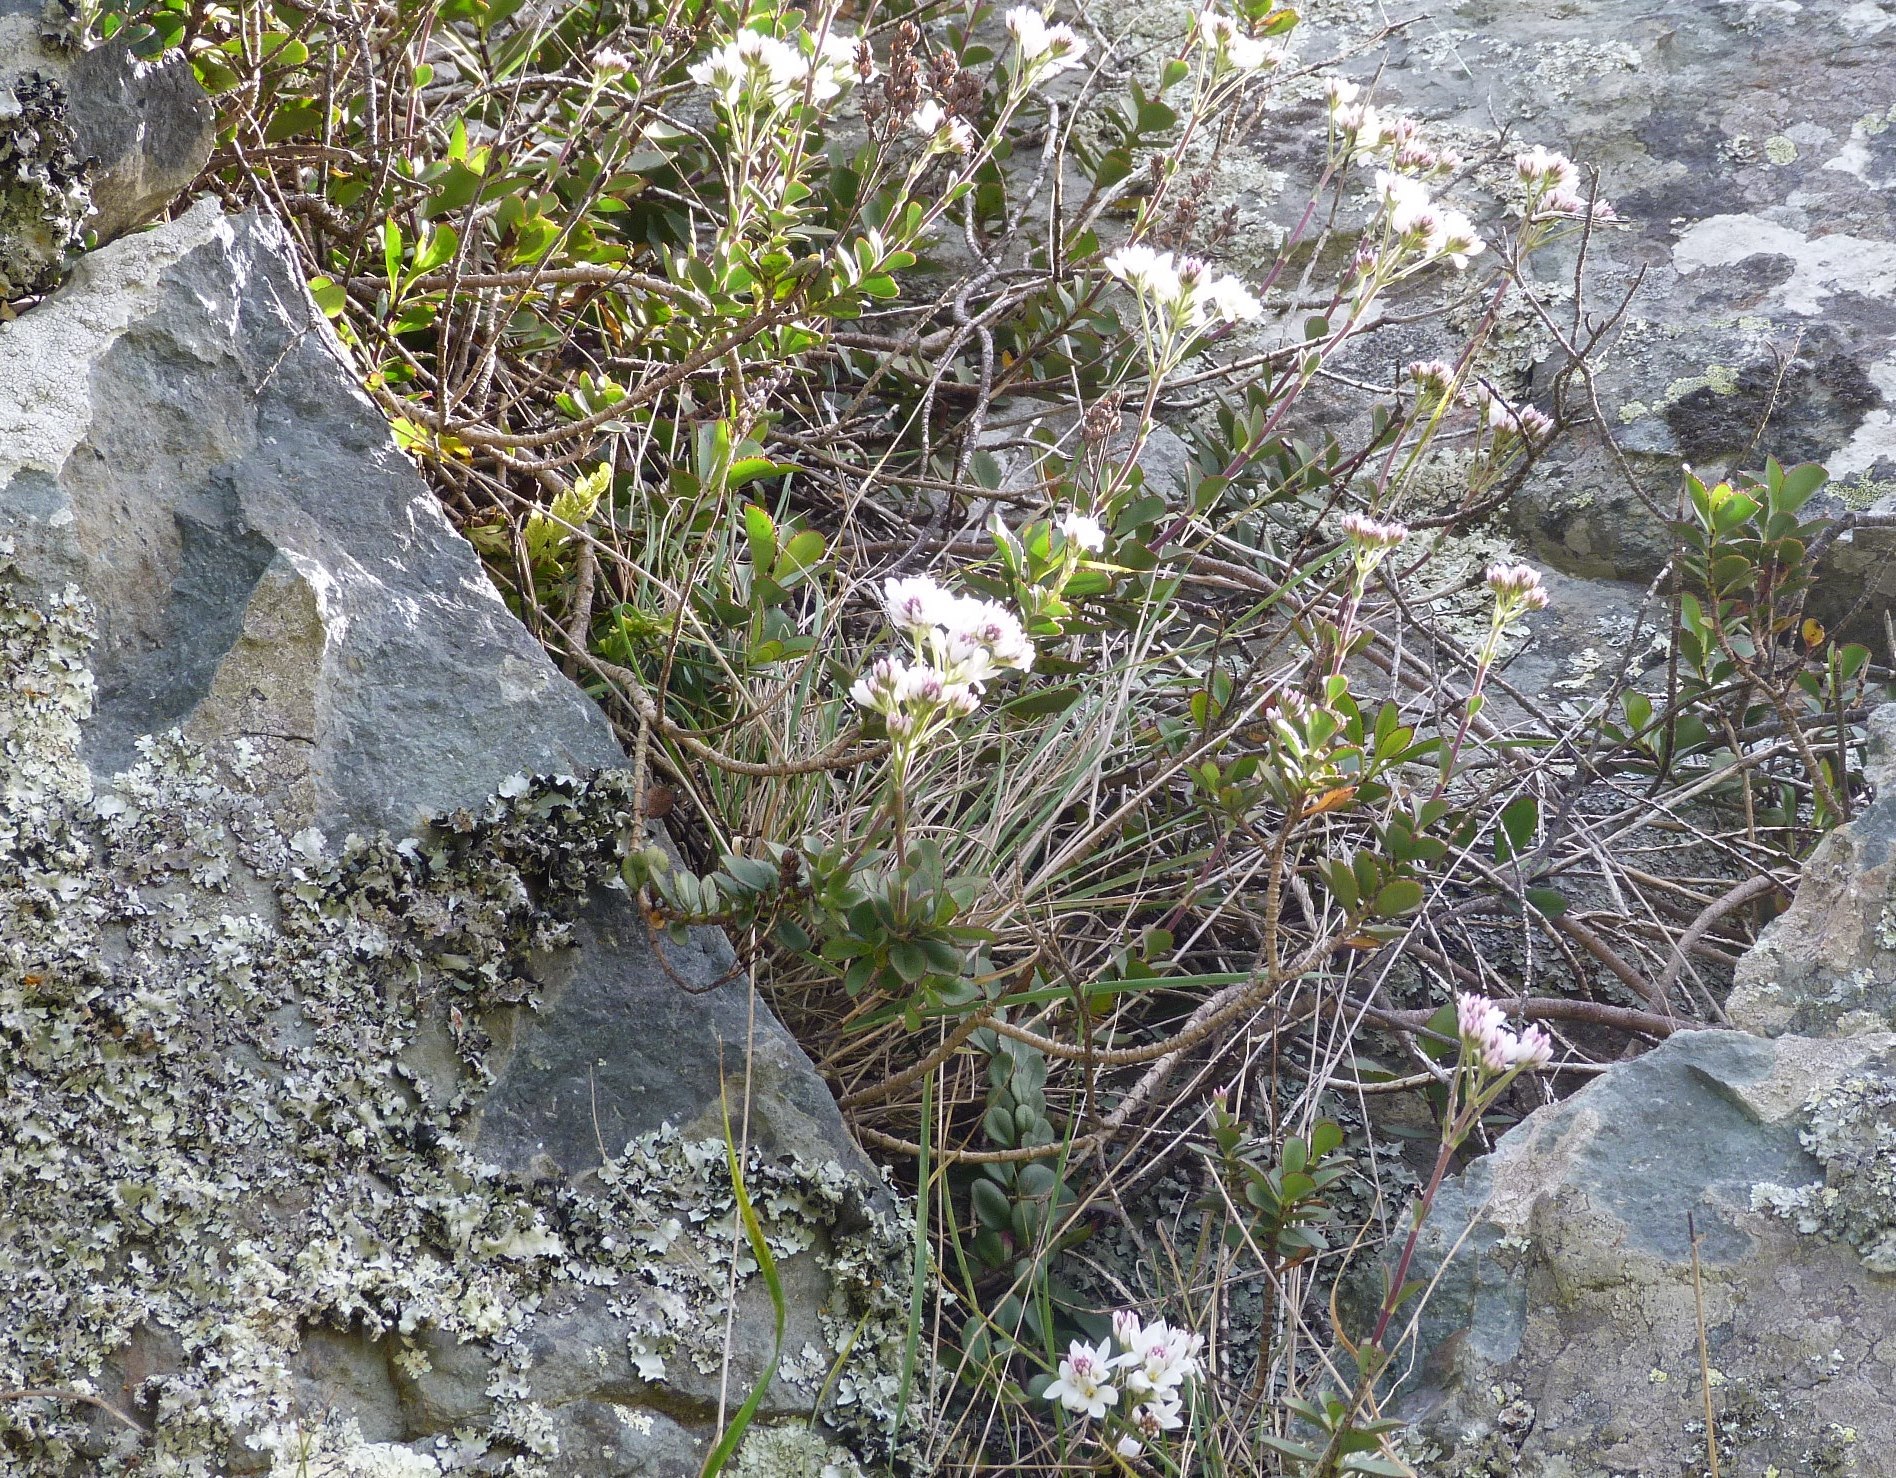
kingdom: Plantae
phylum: Tracheophyta
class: Magnoliopsida
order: Lamiales
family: Plantaginaceae
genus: Veronica
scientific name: Veronica lavaudiana
